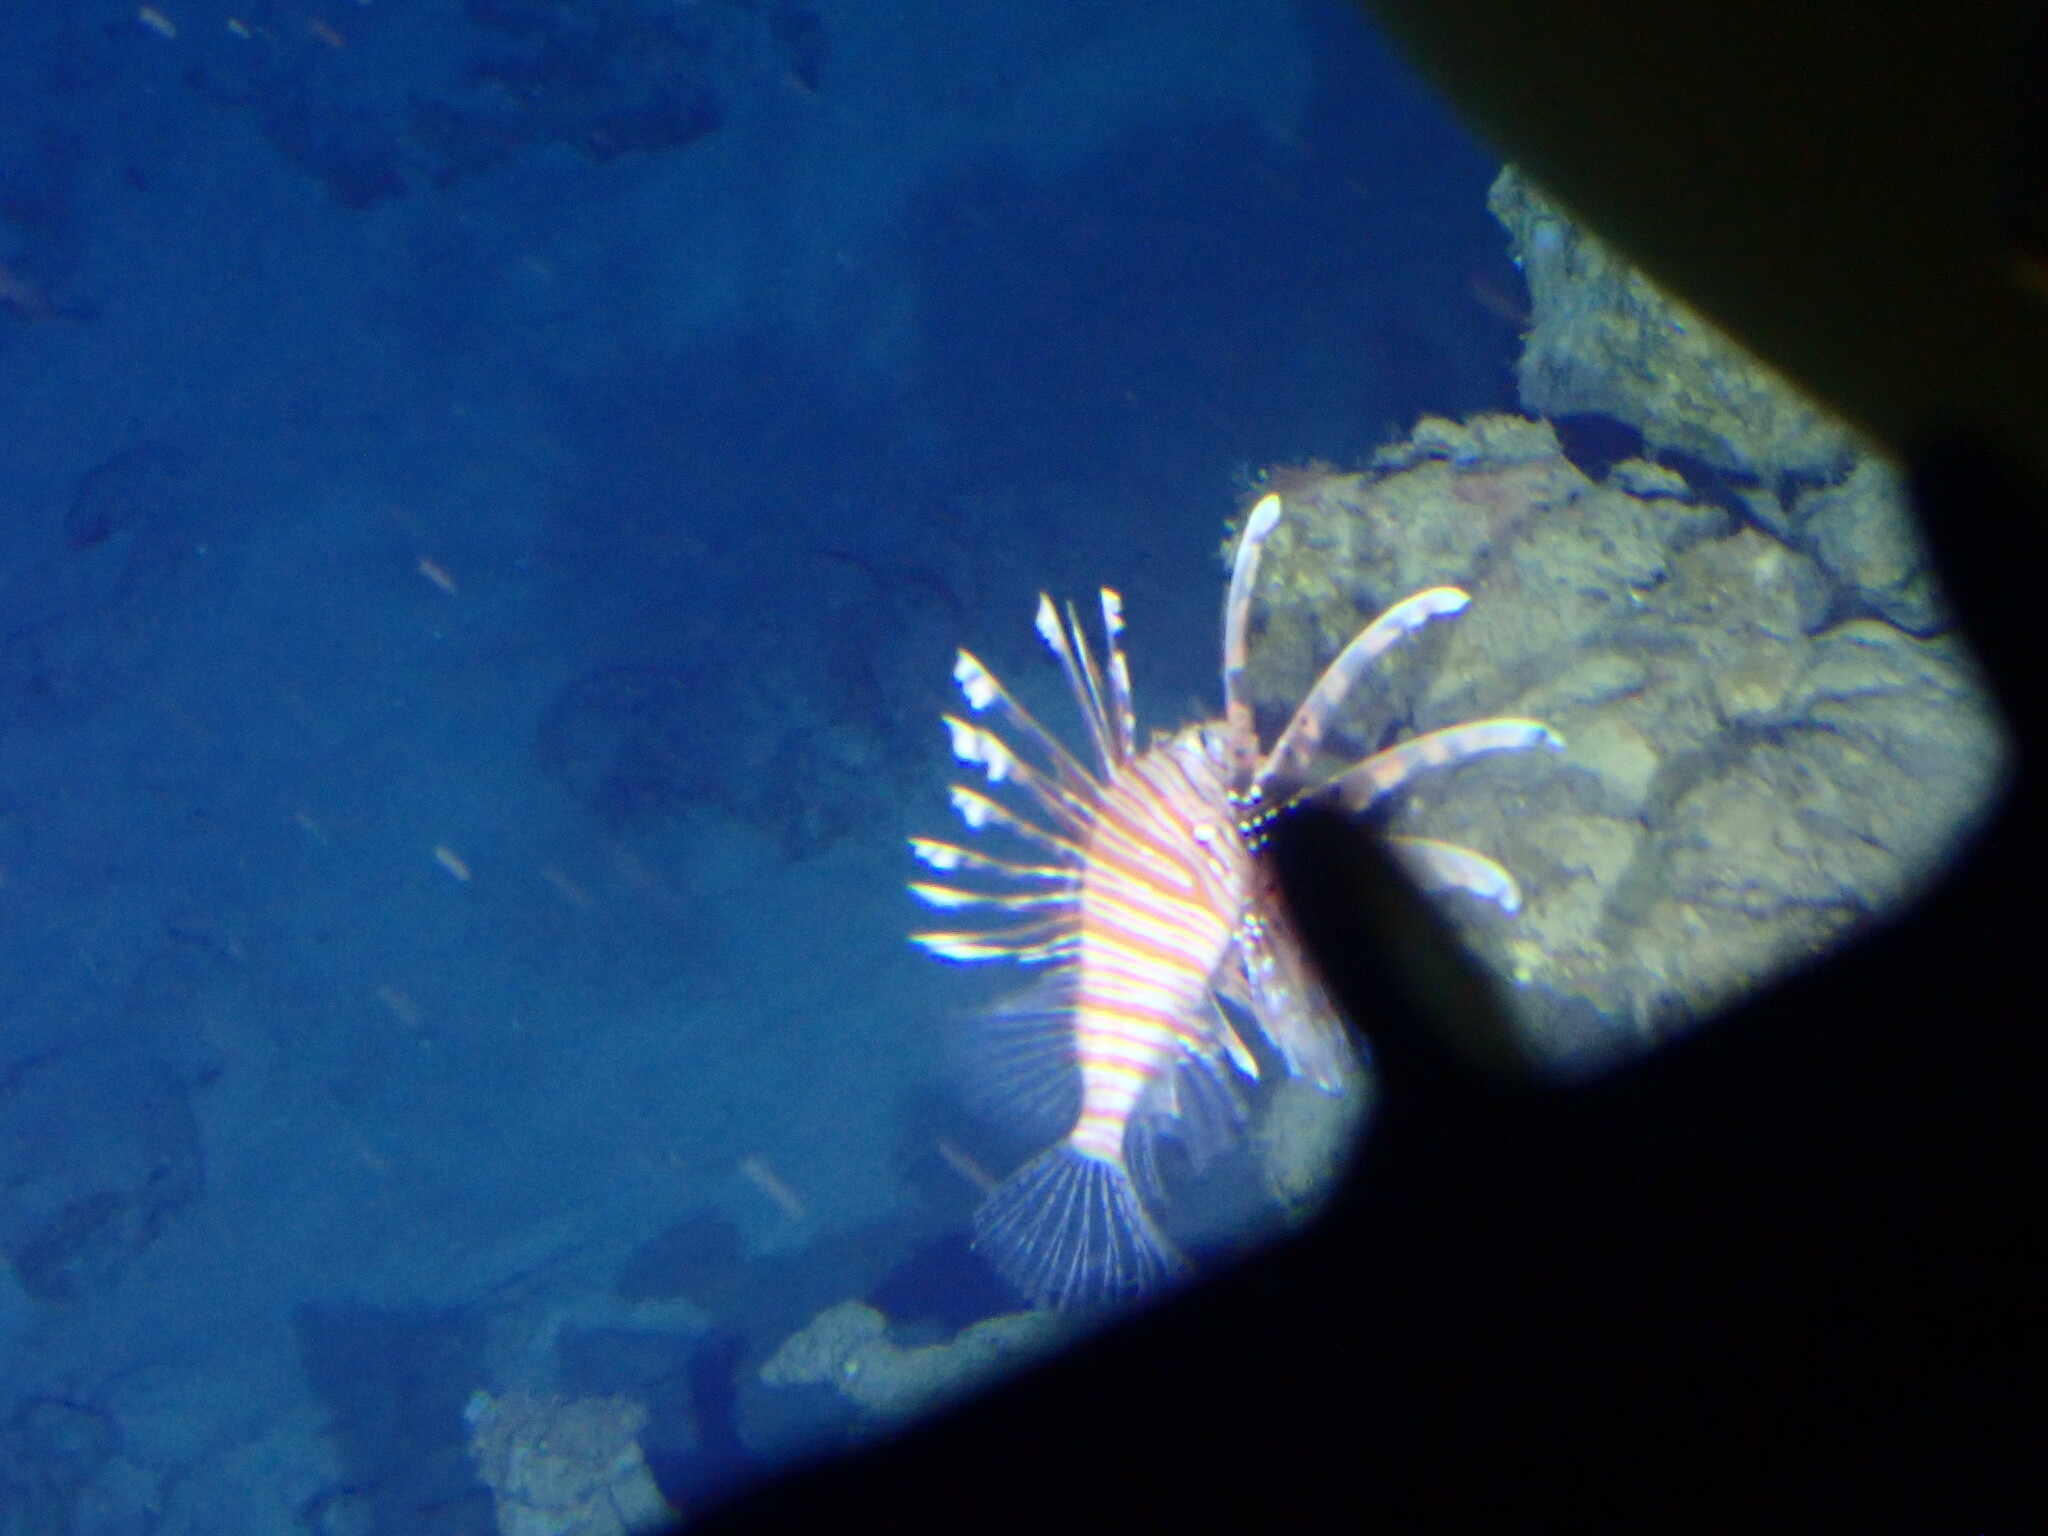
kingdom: Animalia
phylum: Chordata
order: Scorpaeniformes
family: Scorpaenidae
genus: Pterois
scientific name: Pterois volitans
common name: Lionfish
